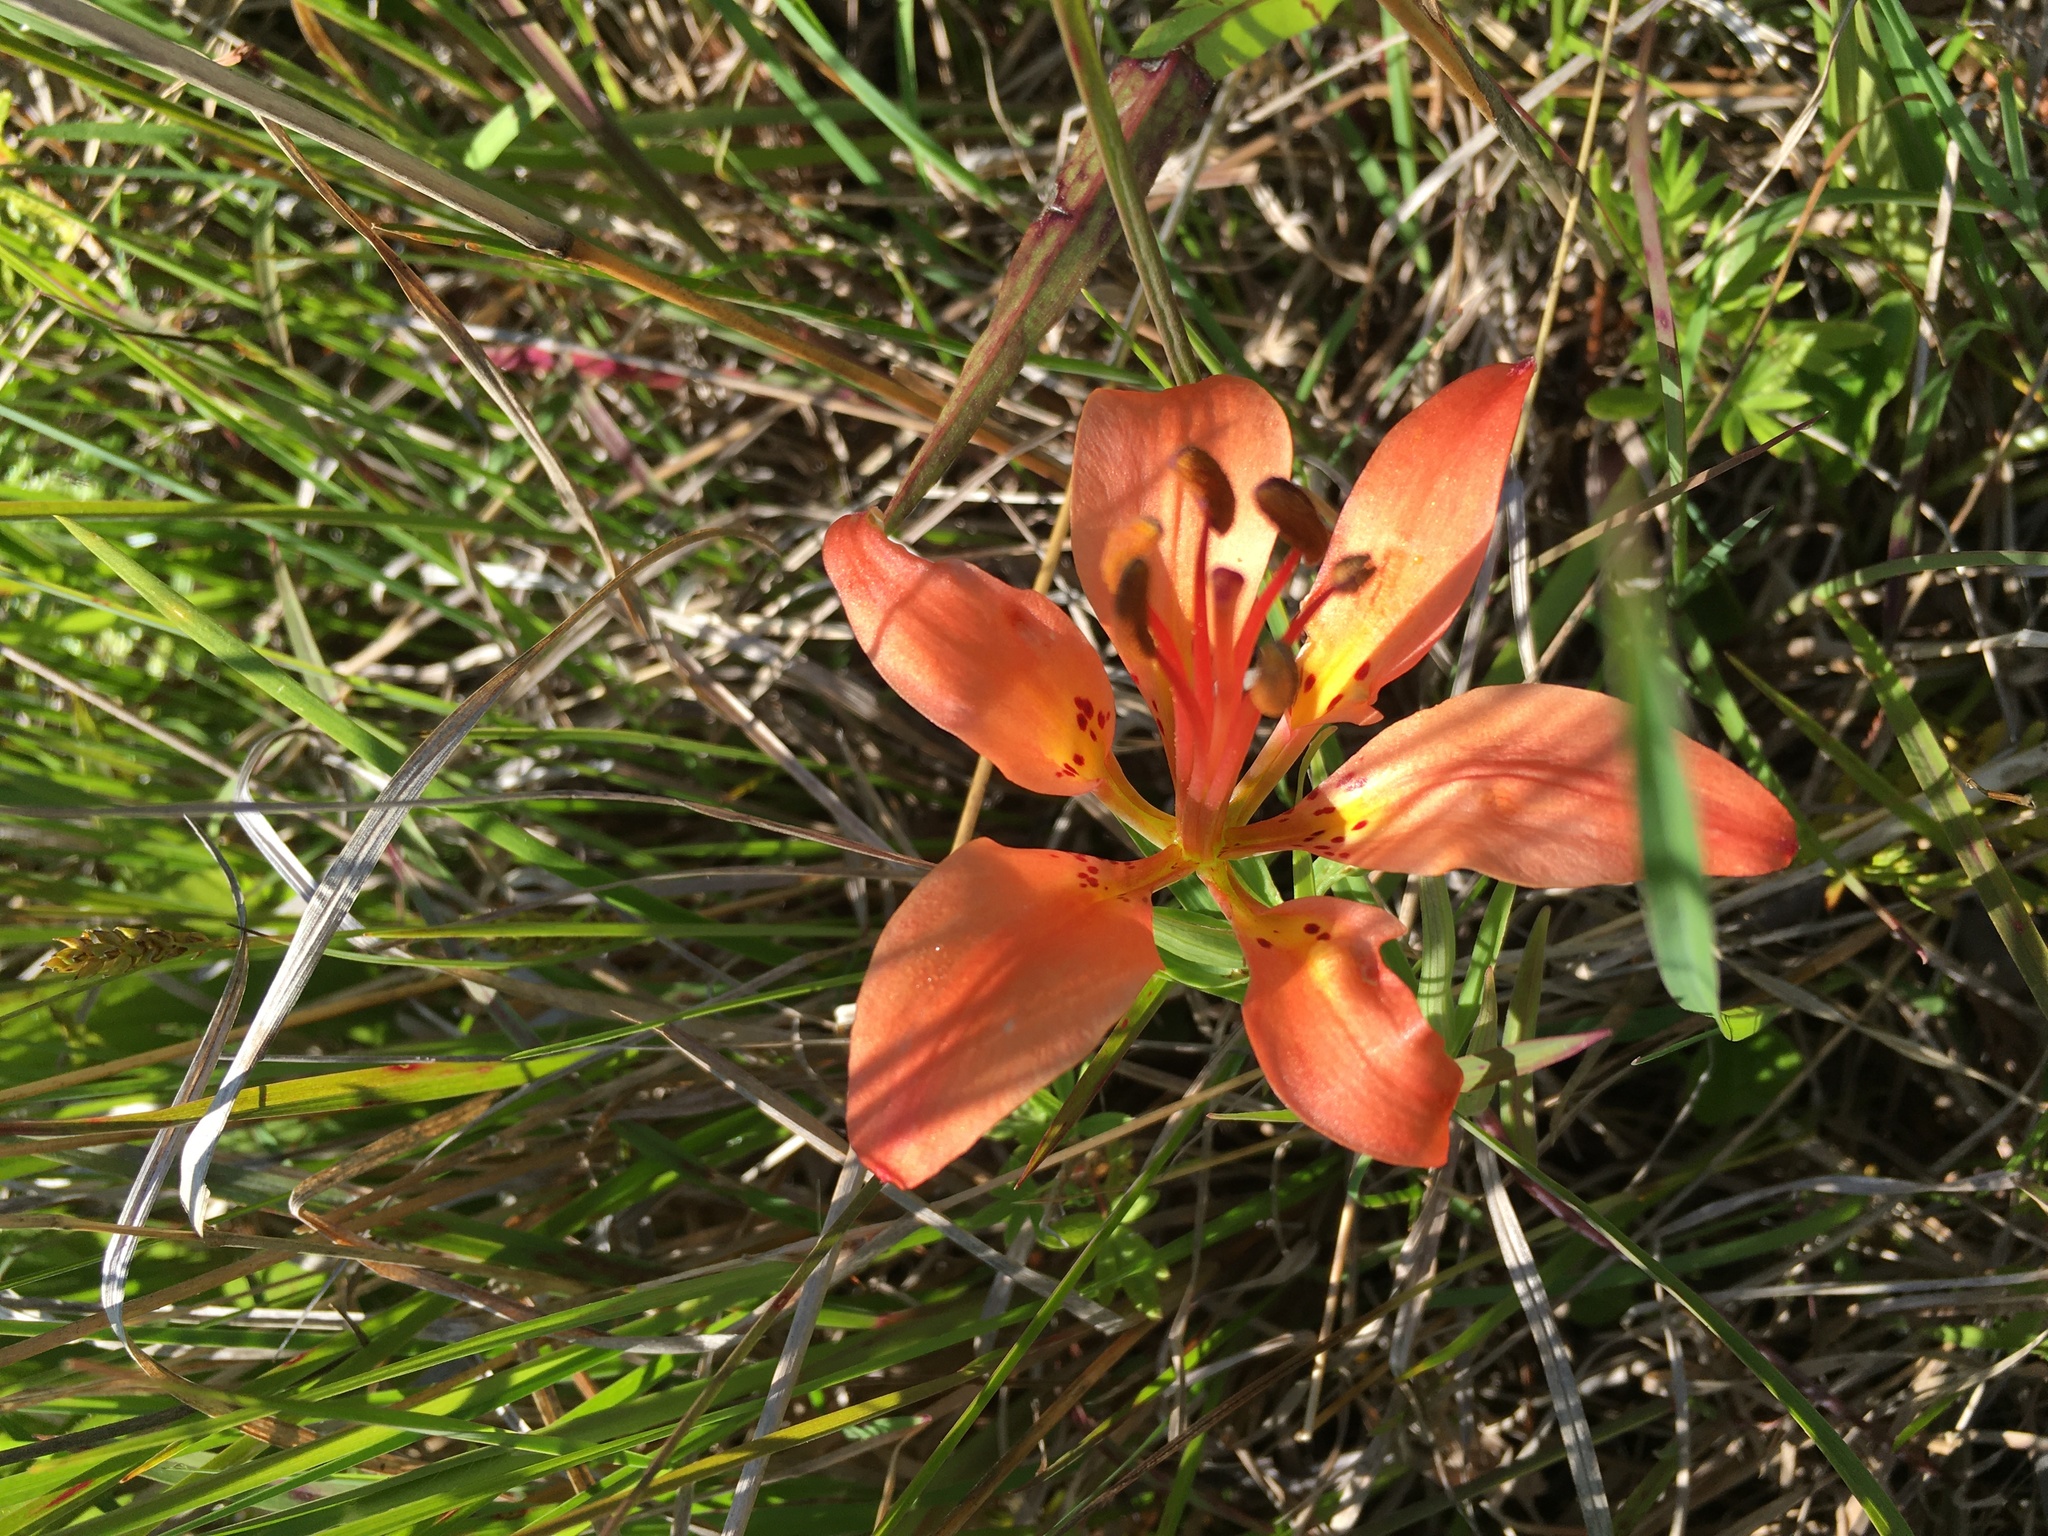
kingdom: Plantae
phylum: Tracheophyta
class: Liliopsida
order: Liliales
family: Liliaceae
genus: Lilium
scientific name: Lilium philadelphicum
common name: Red lily
